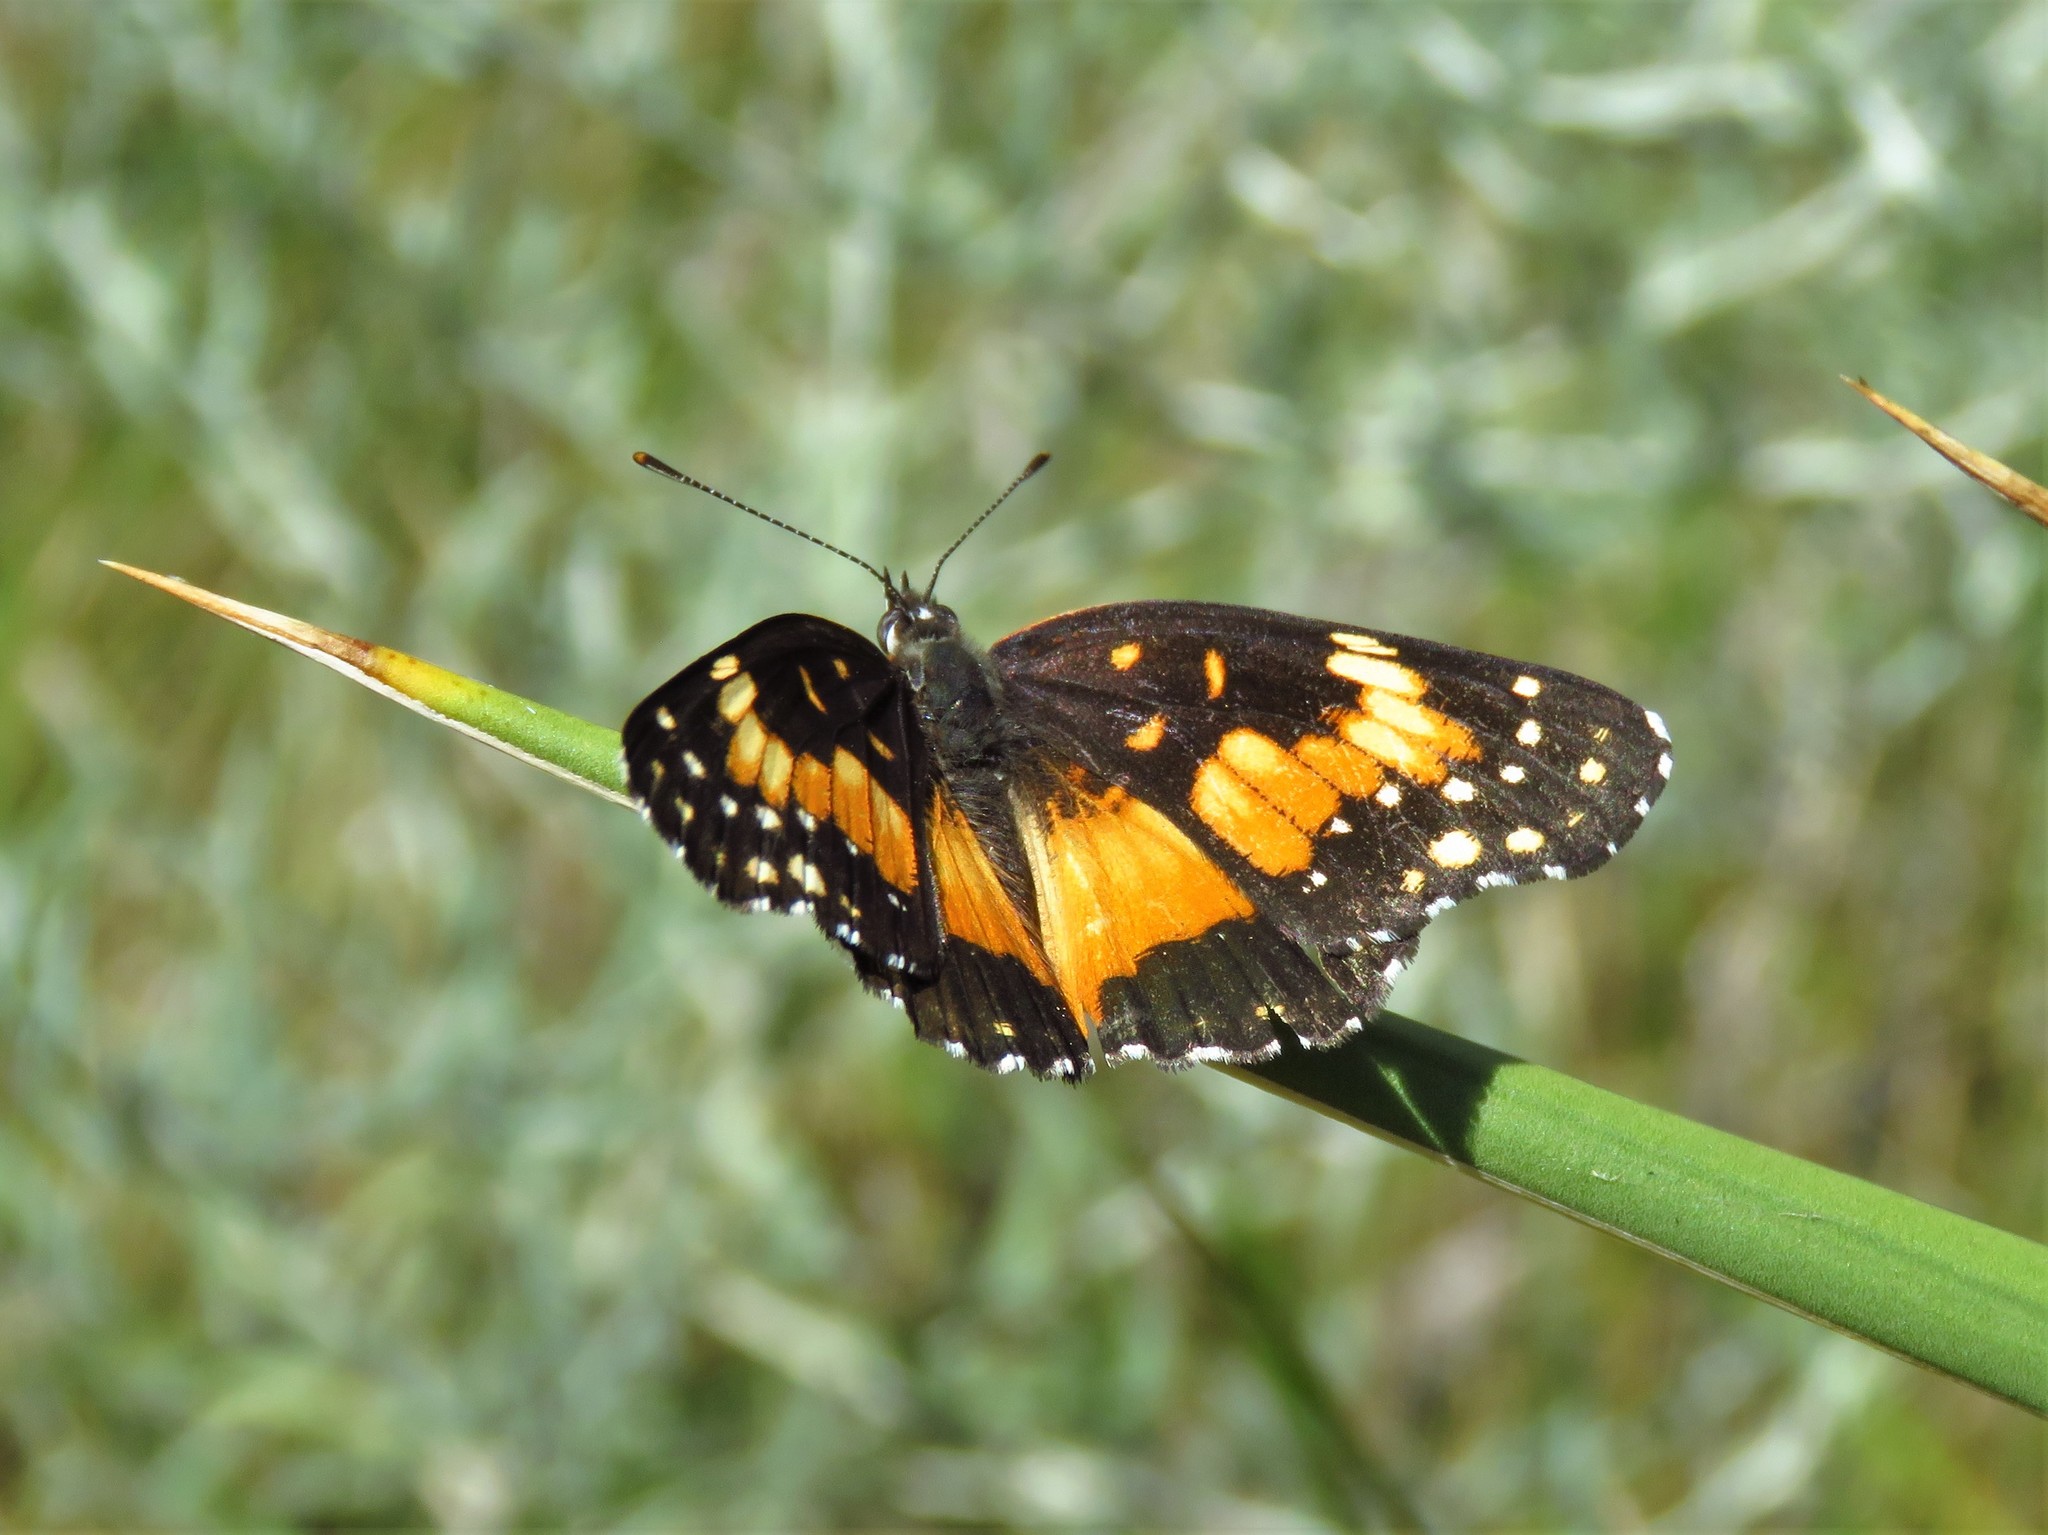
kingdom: Animalia
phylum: Arthropoda
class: Insecta
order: Lepidoptera
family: Nymphalidae
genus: Chlosyne
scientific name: Chlosyne lacinia
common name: Bordered patch
